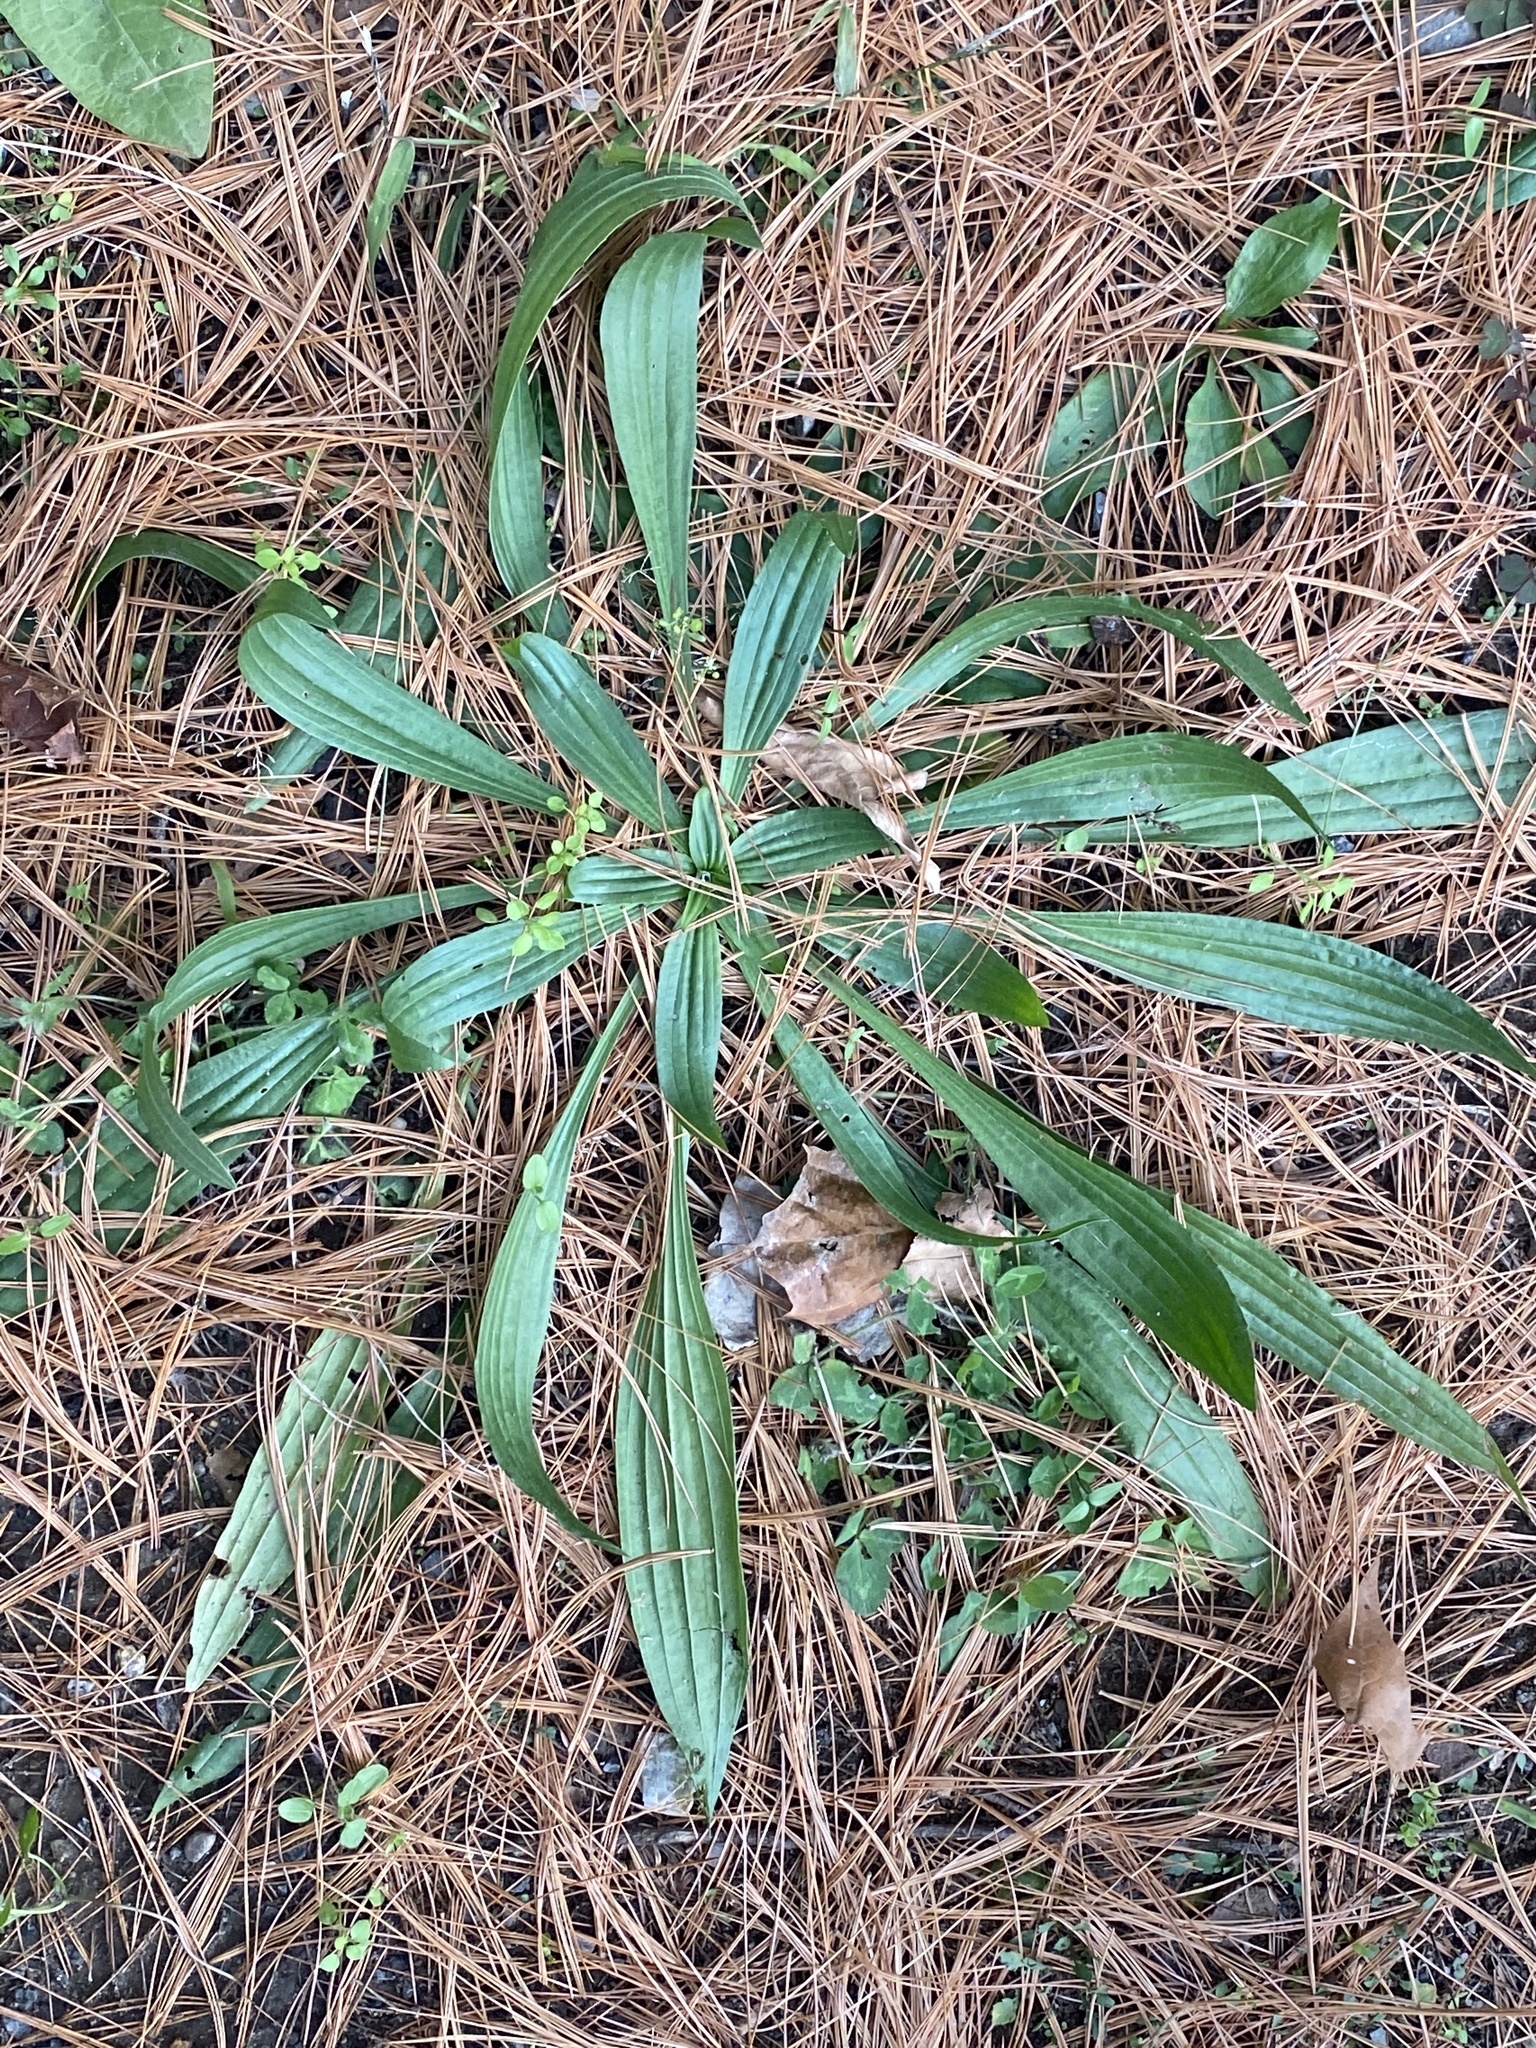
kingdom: Plantae
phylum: Tracheophyta
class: Magnoliopsida
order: Lamiales
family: Plantaginaceae
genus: Plantago
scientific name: Plantago lanceolata
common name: Ribwort plantain
